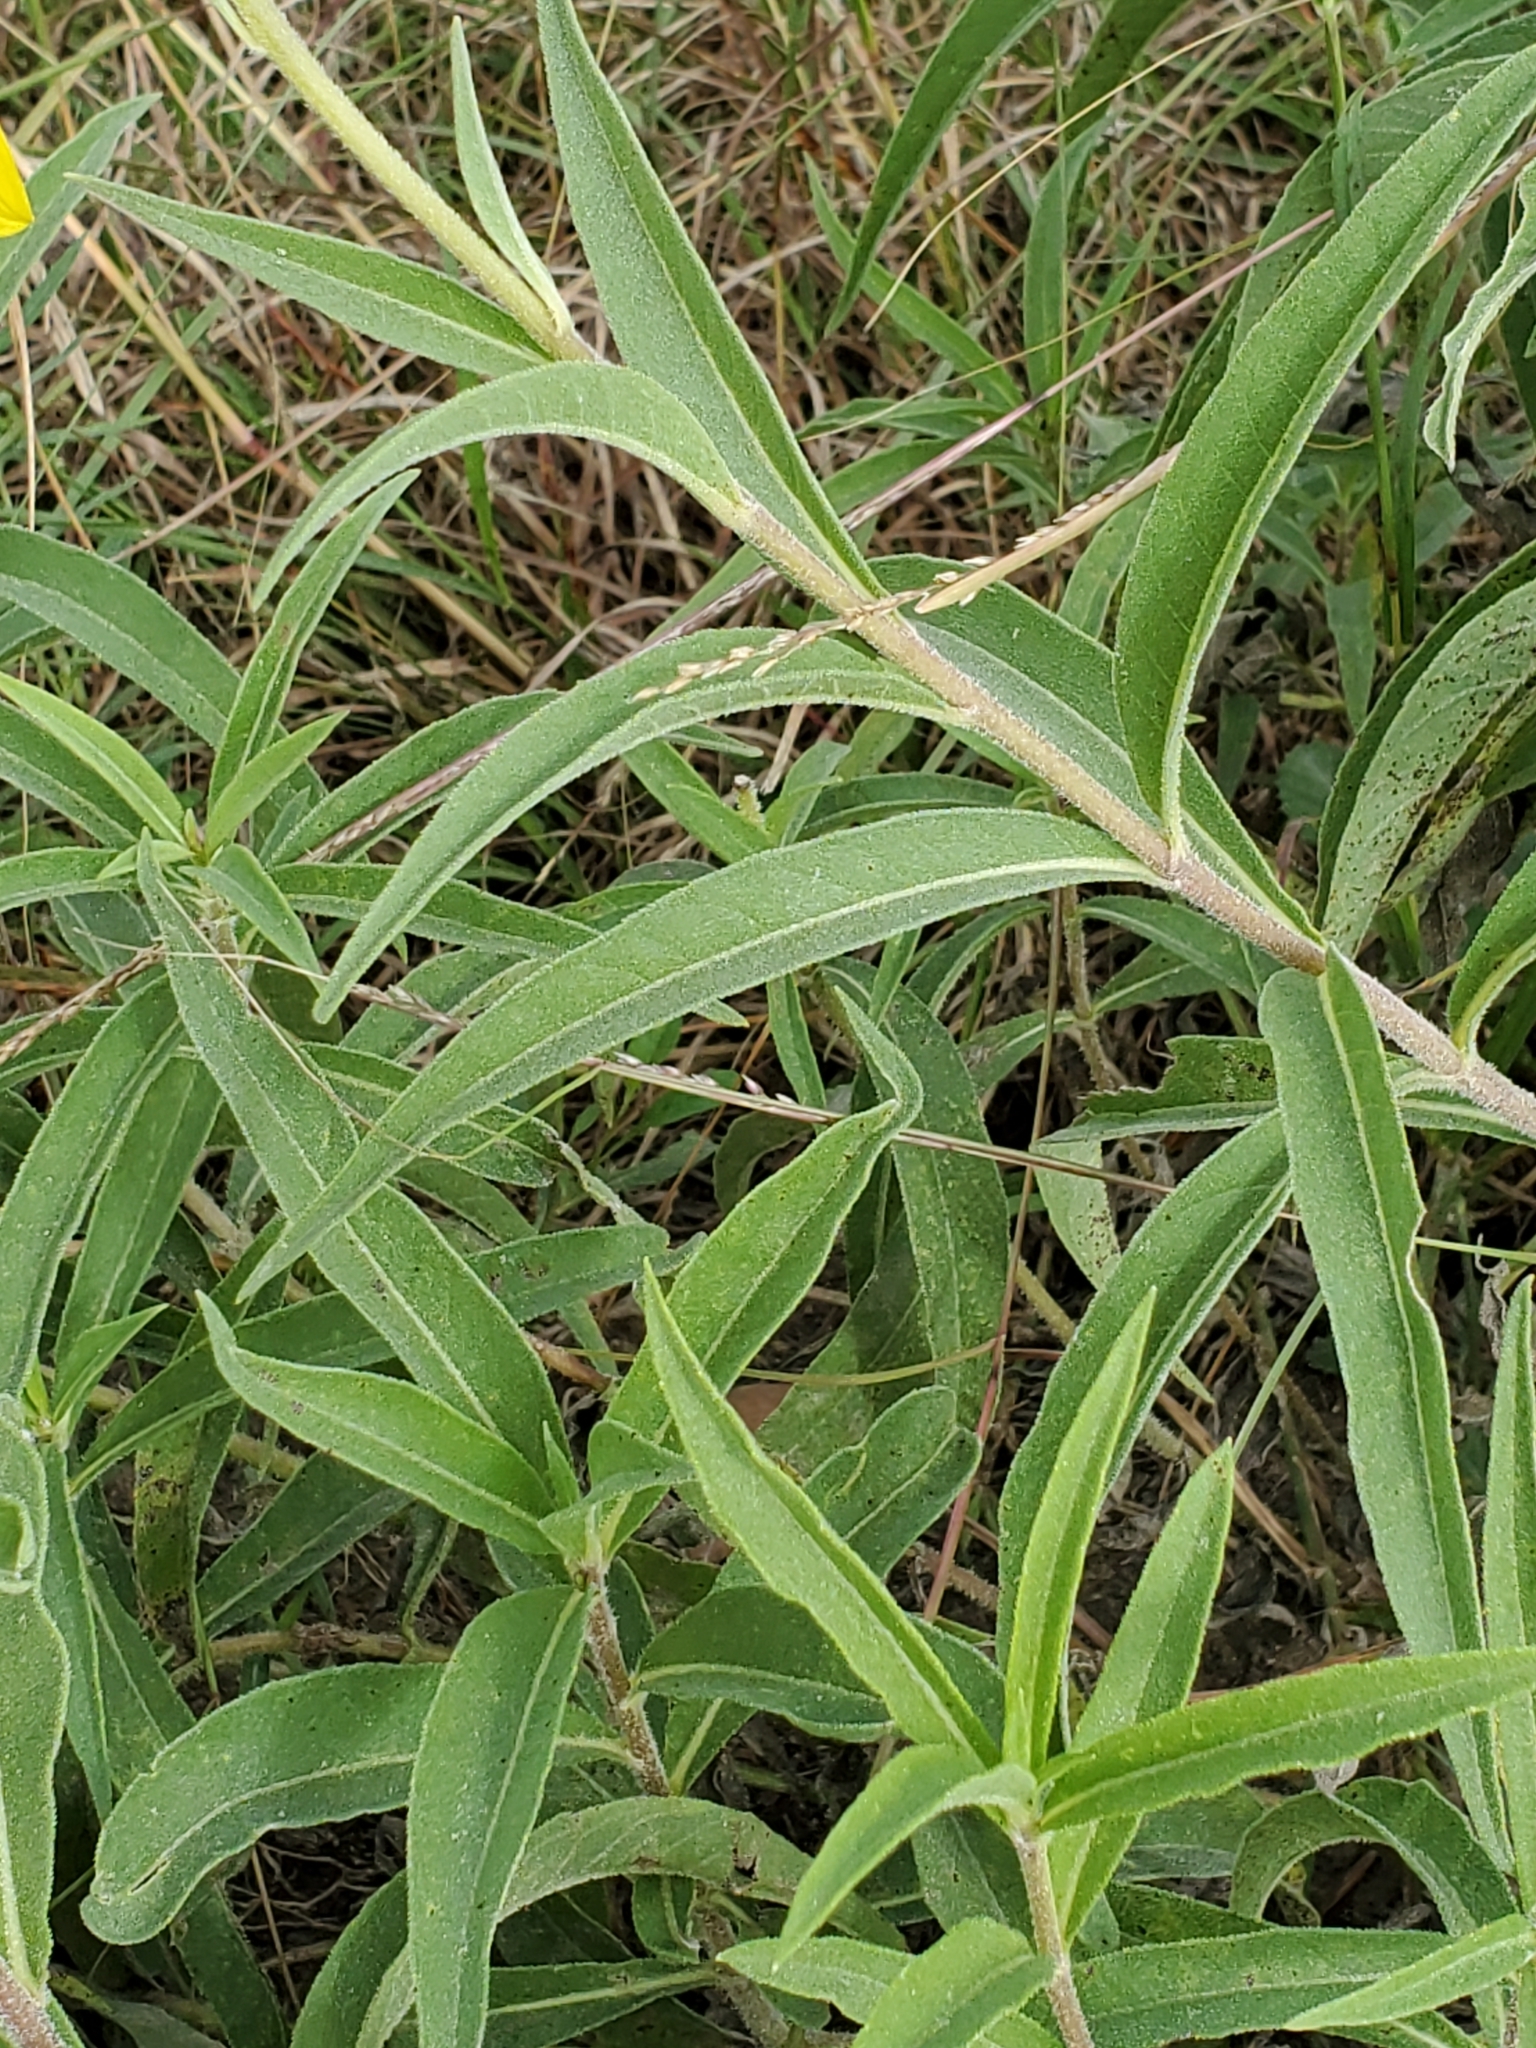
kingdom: Plantae
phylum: Tracheophyta
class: Magnoliopsida
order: Asterales
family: Asteraceae
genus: Helianthus
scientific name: Helianthus maximiliani
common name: Maximilian's sunflower
